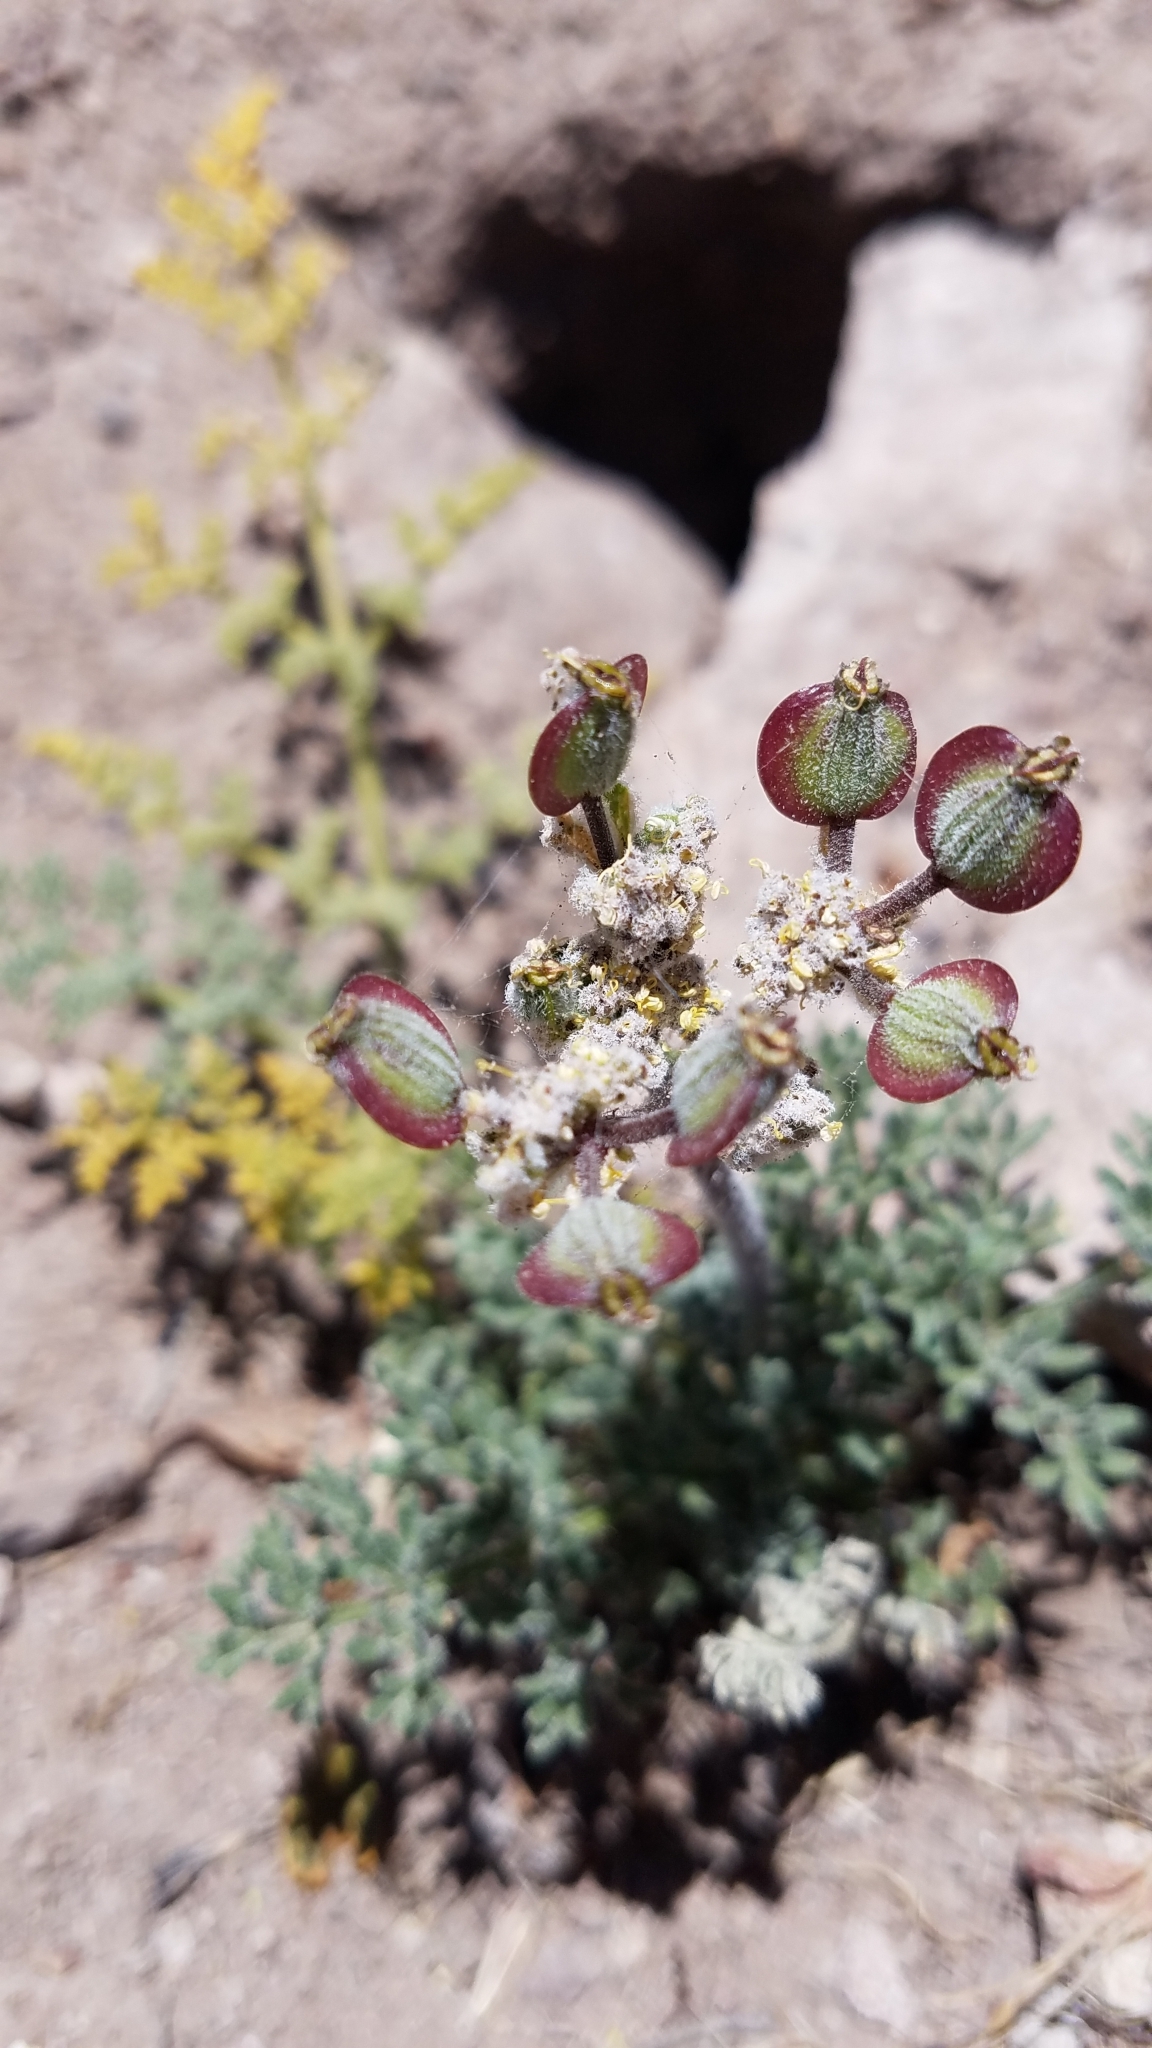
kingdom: Plantae
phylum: Tracheophyta
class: Magnoliopsida
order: Apiales
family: Apiaceae
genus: Lomatium
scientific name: Lomatium dasycarpum
